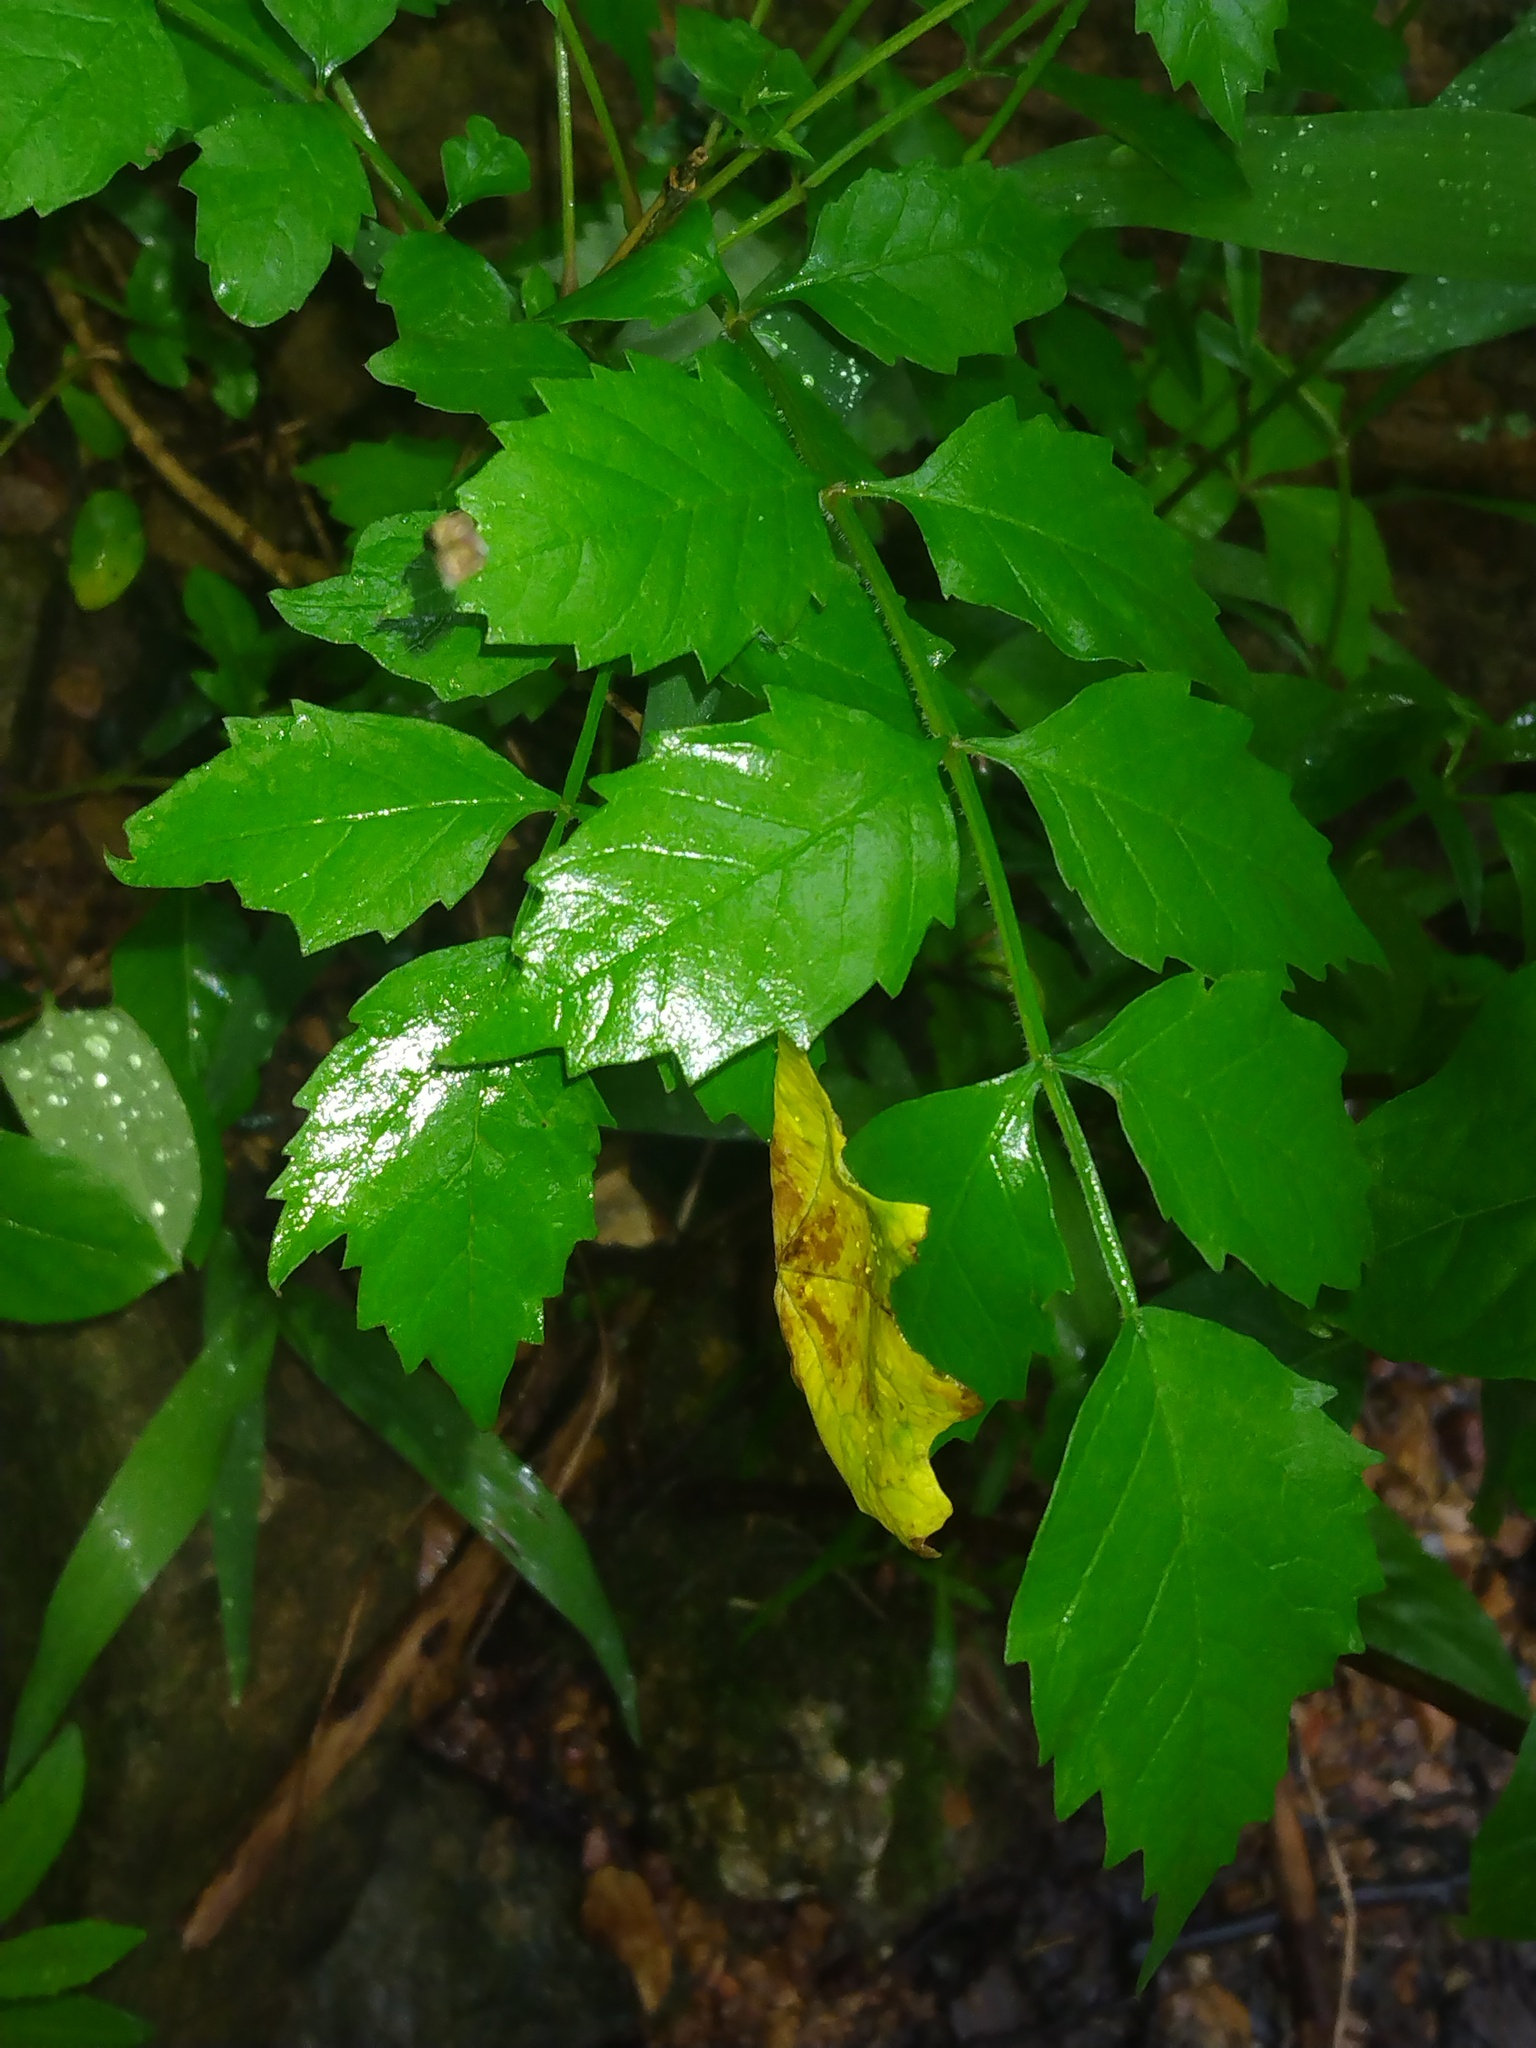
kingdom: Plantae
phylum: Tracheophyta
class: Magnoliopsida
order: Lamiales
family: Bignoniaceae
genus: Campsis
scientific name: Campsis radicans
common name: Trumpet-creeper
